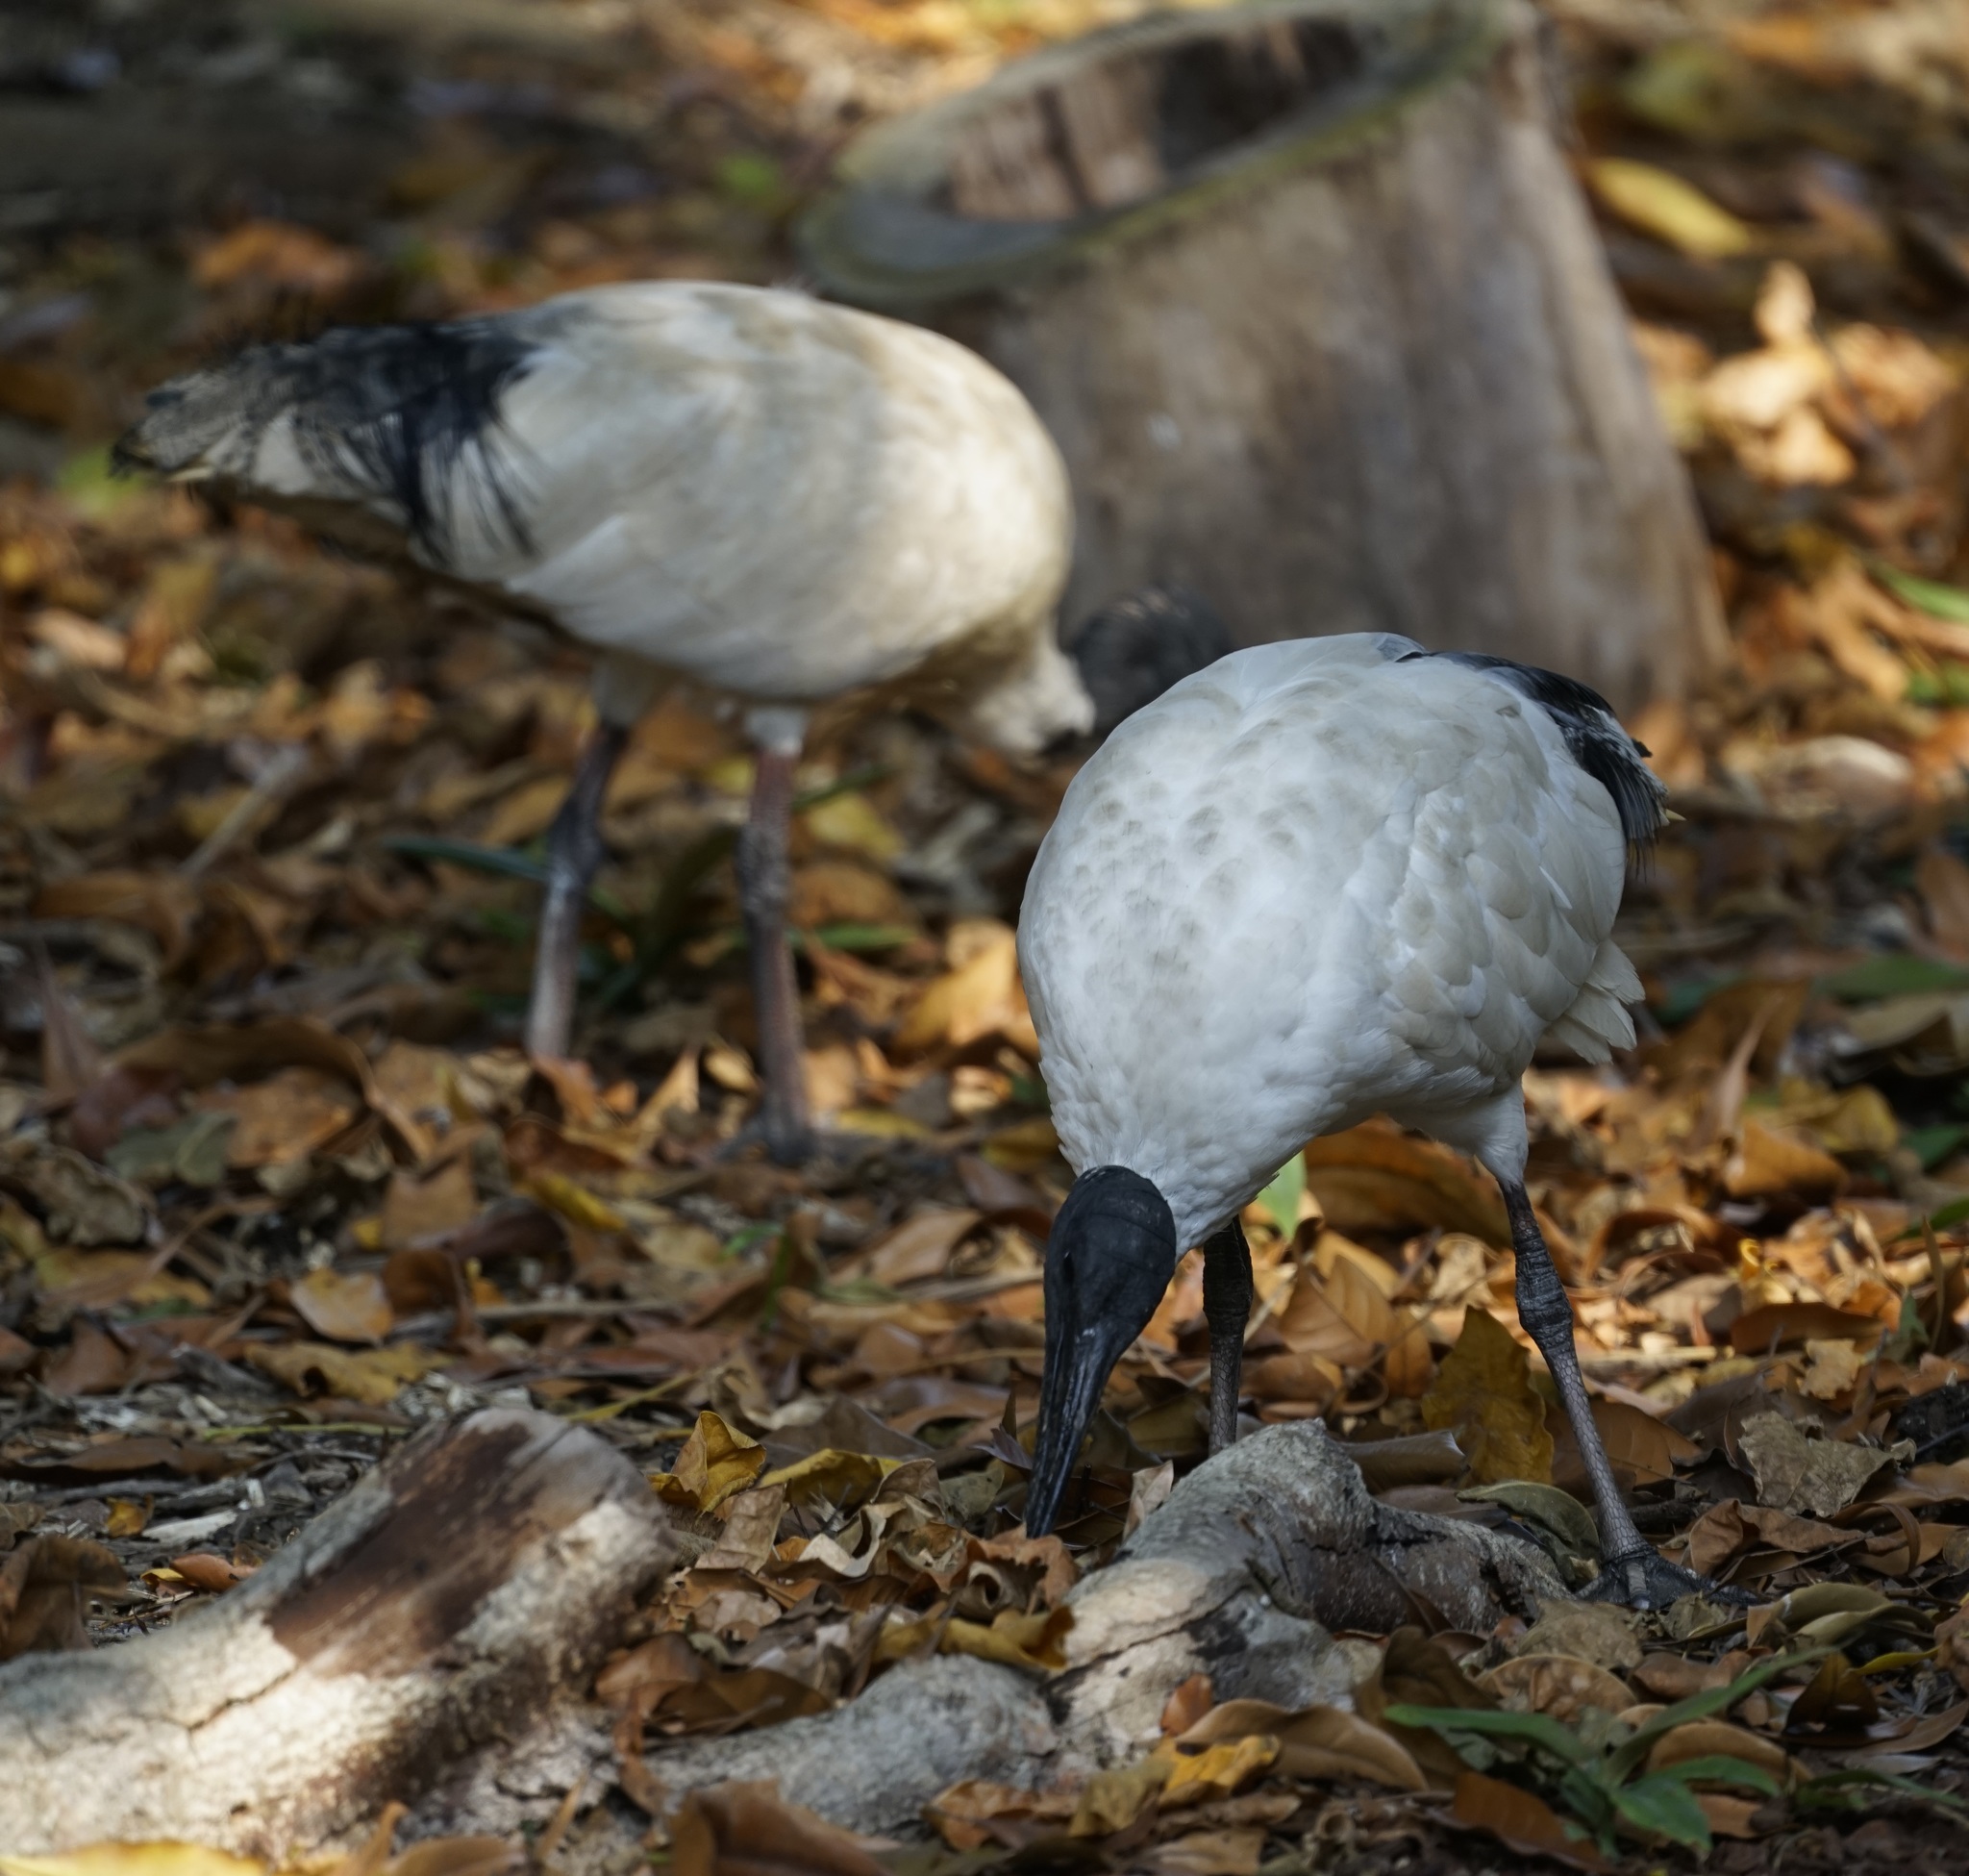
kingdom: Animalia
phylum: Chordata
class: Aves
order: Pelecaniformes
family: Threskiornithidae
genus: Threskiornis
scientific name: Threskiornis molucca
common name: Australian white ibis
